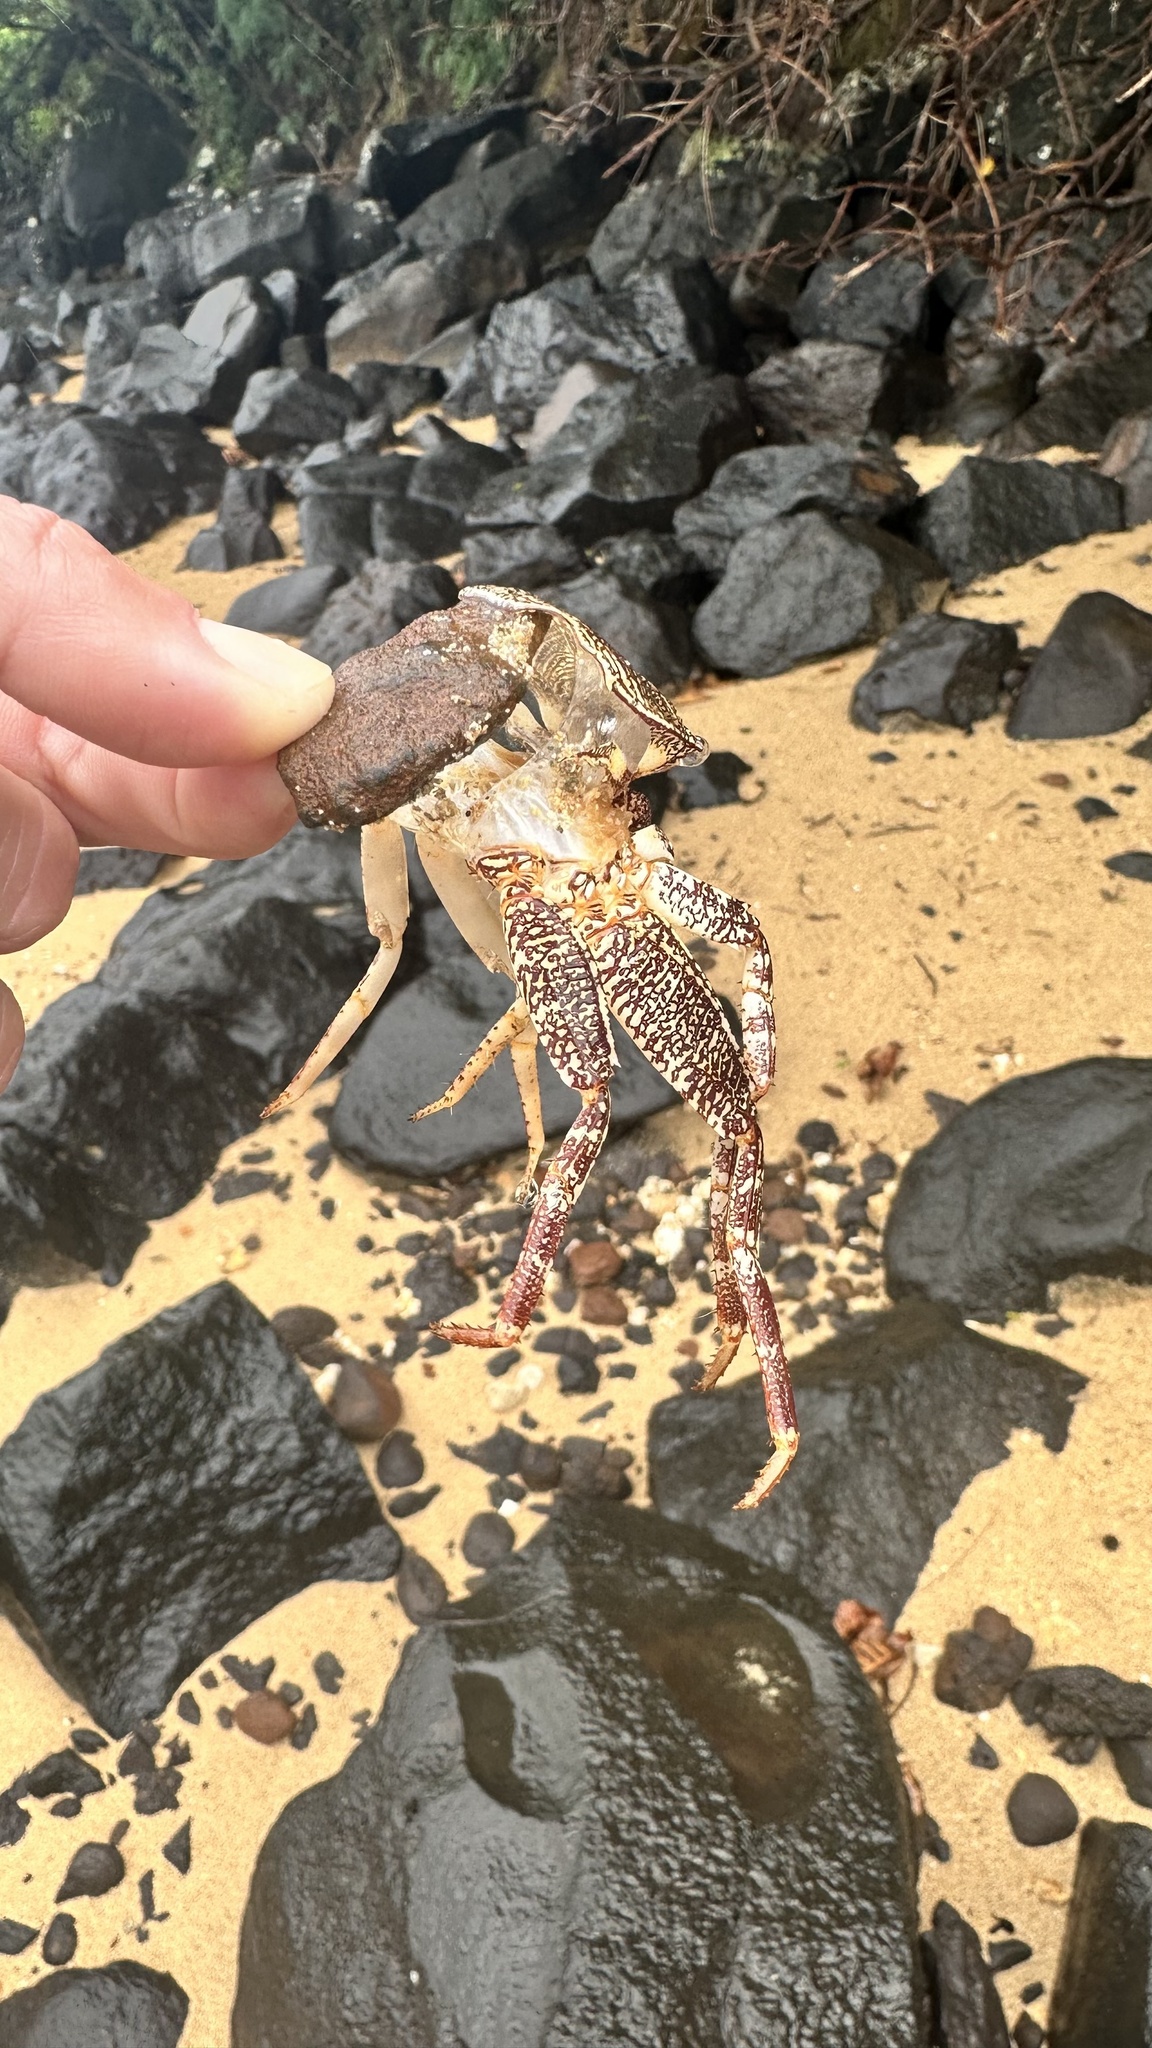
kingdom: Animalia
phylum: Arthropoda
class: Malacostraca
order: Decapoda
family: Grapsidae
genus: Grapsus
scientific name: Grapsus tenuicrustatus
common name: Natal lightfoot crab
